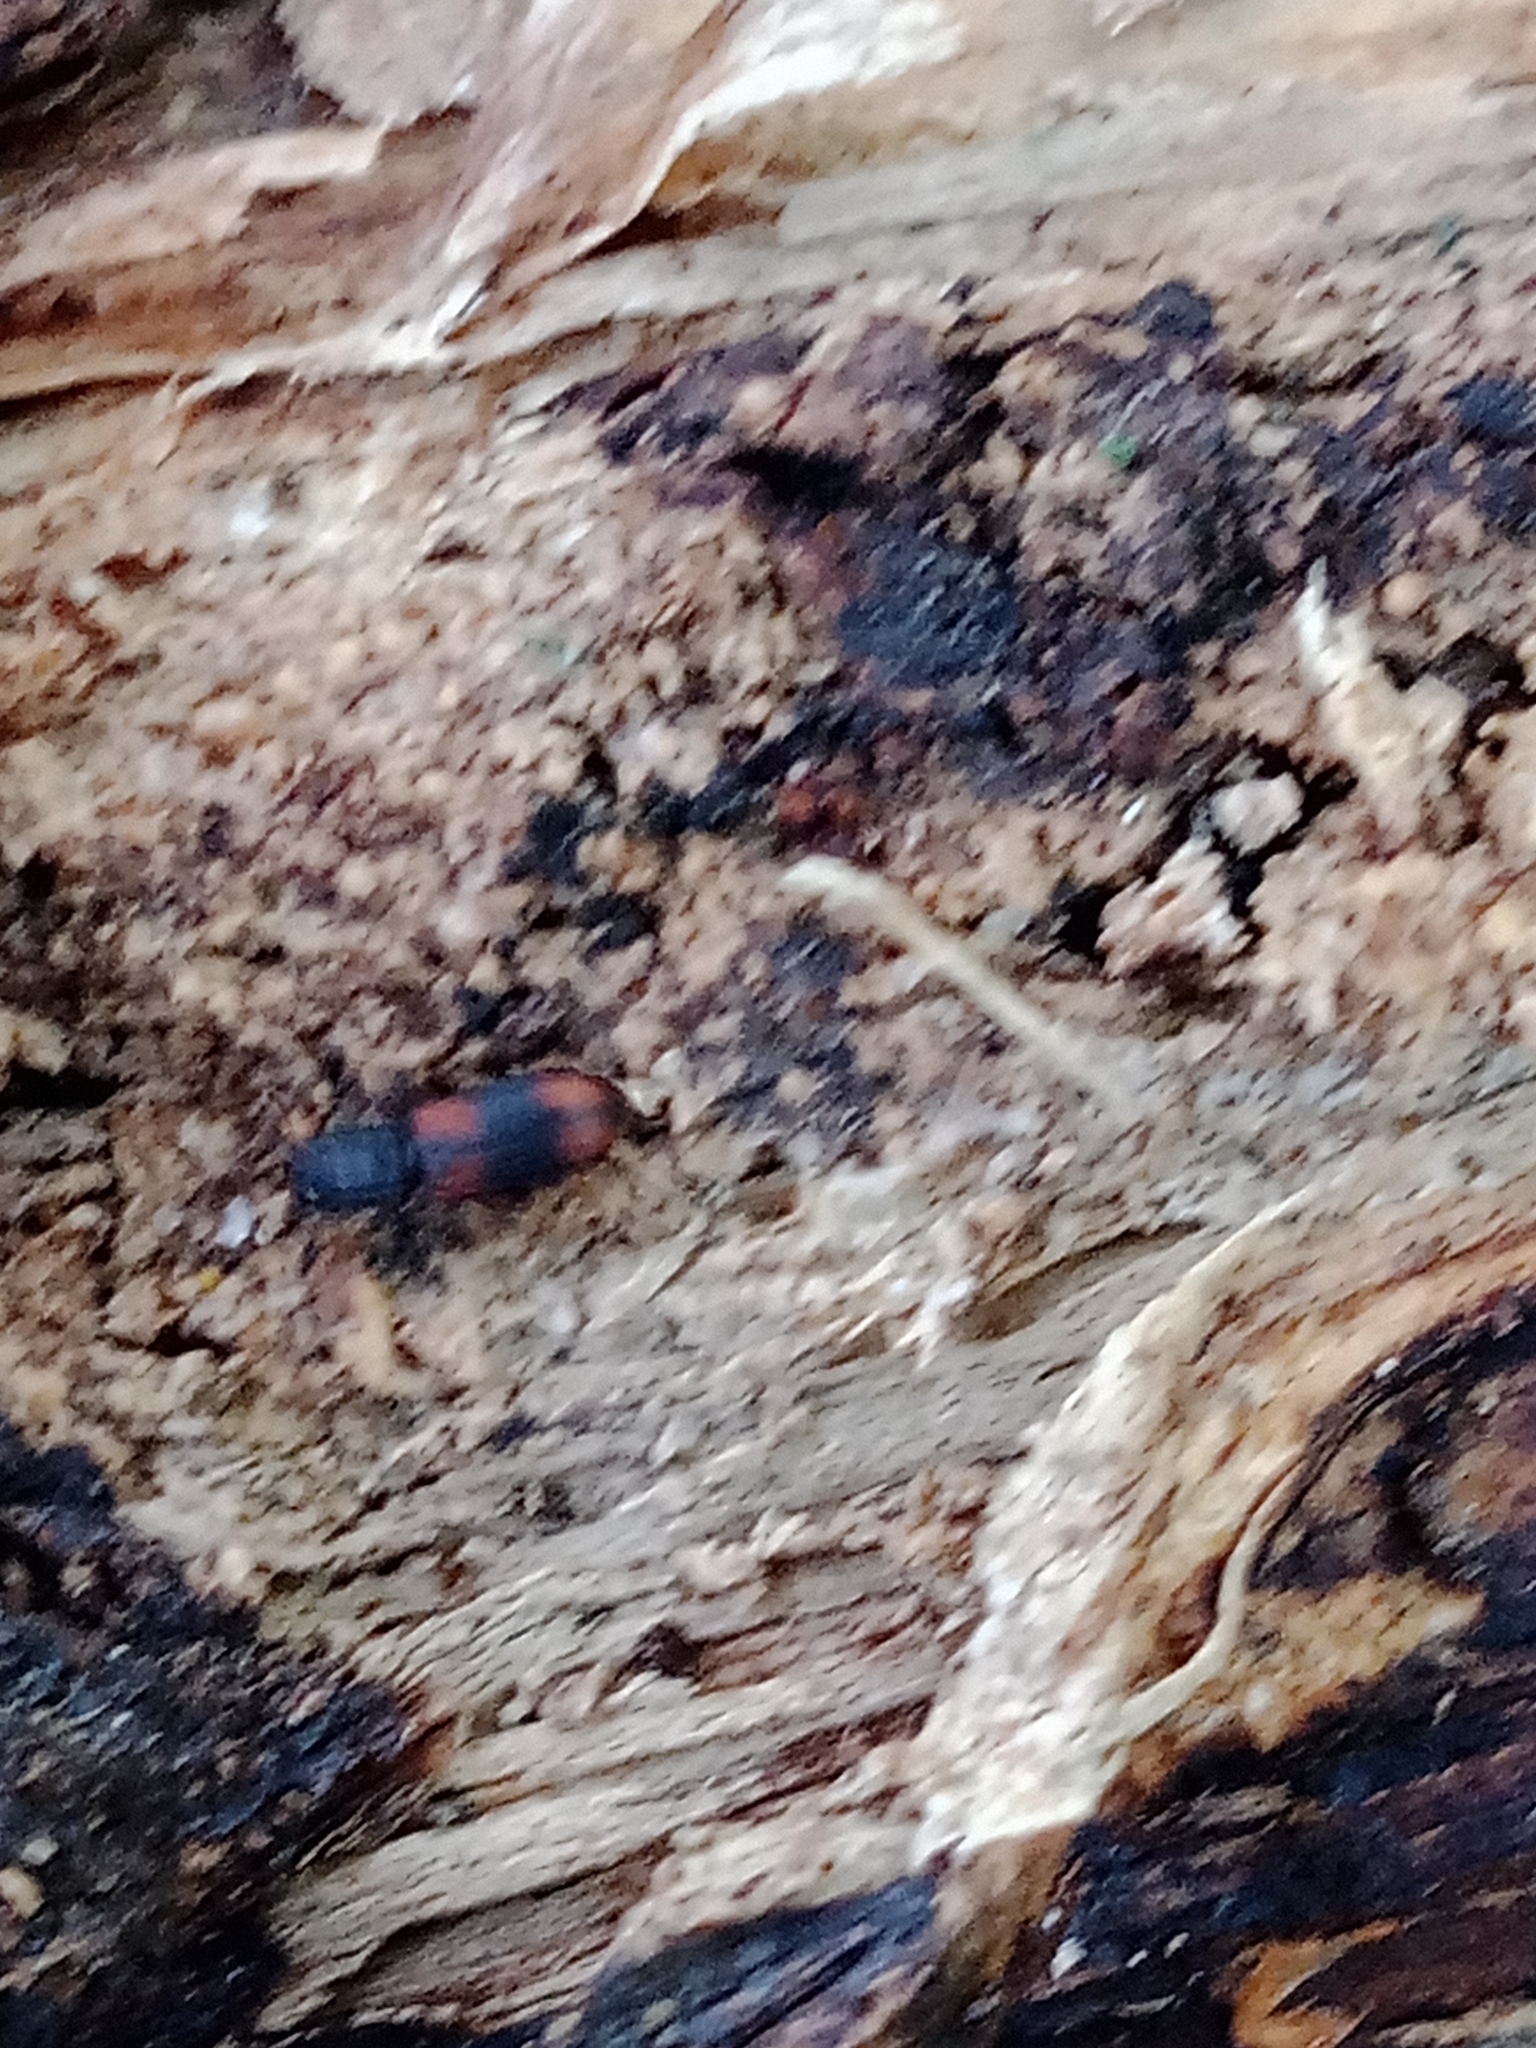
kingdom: Animalia
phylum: Arthropoda
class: Insecta
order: Coleoptera
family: Zopheridae
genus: Bitoma
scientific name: Bitoma crenata
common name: Bark beetle
